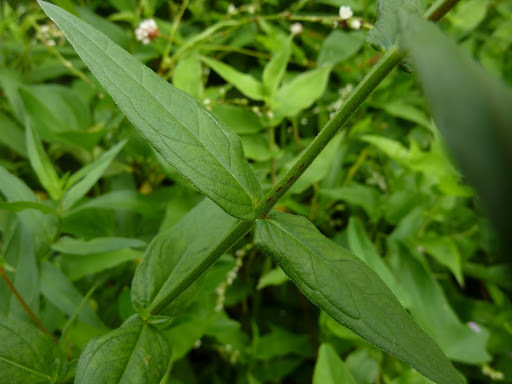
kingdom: Plantae
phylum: Tracheophyta
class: Magnoliopsida
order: Myrtales
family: Lythraceae
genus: Lythrum
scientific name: Lythrum salicaria
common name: Purple loosestrife
